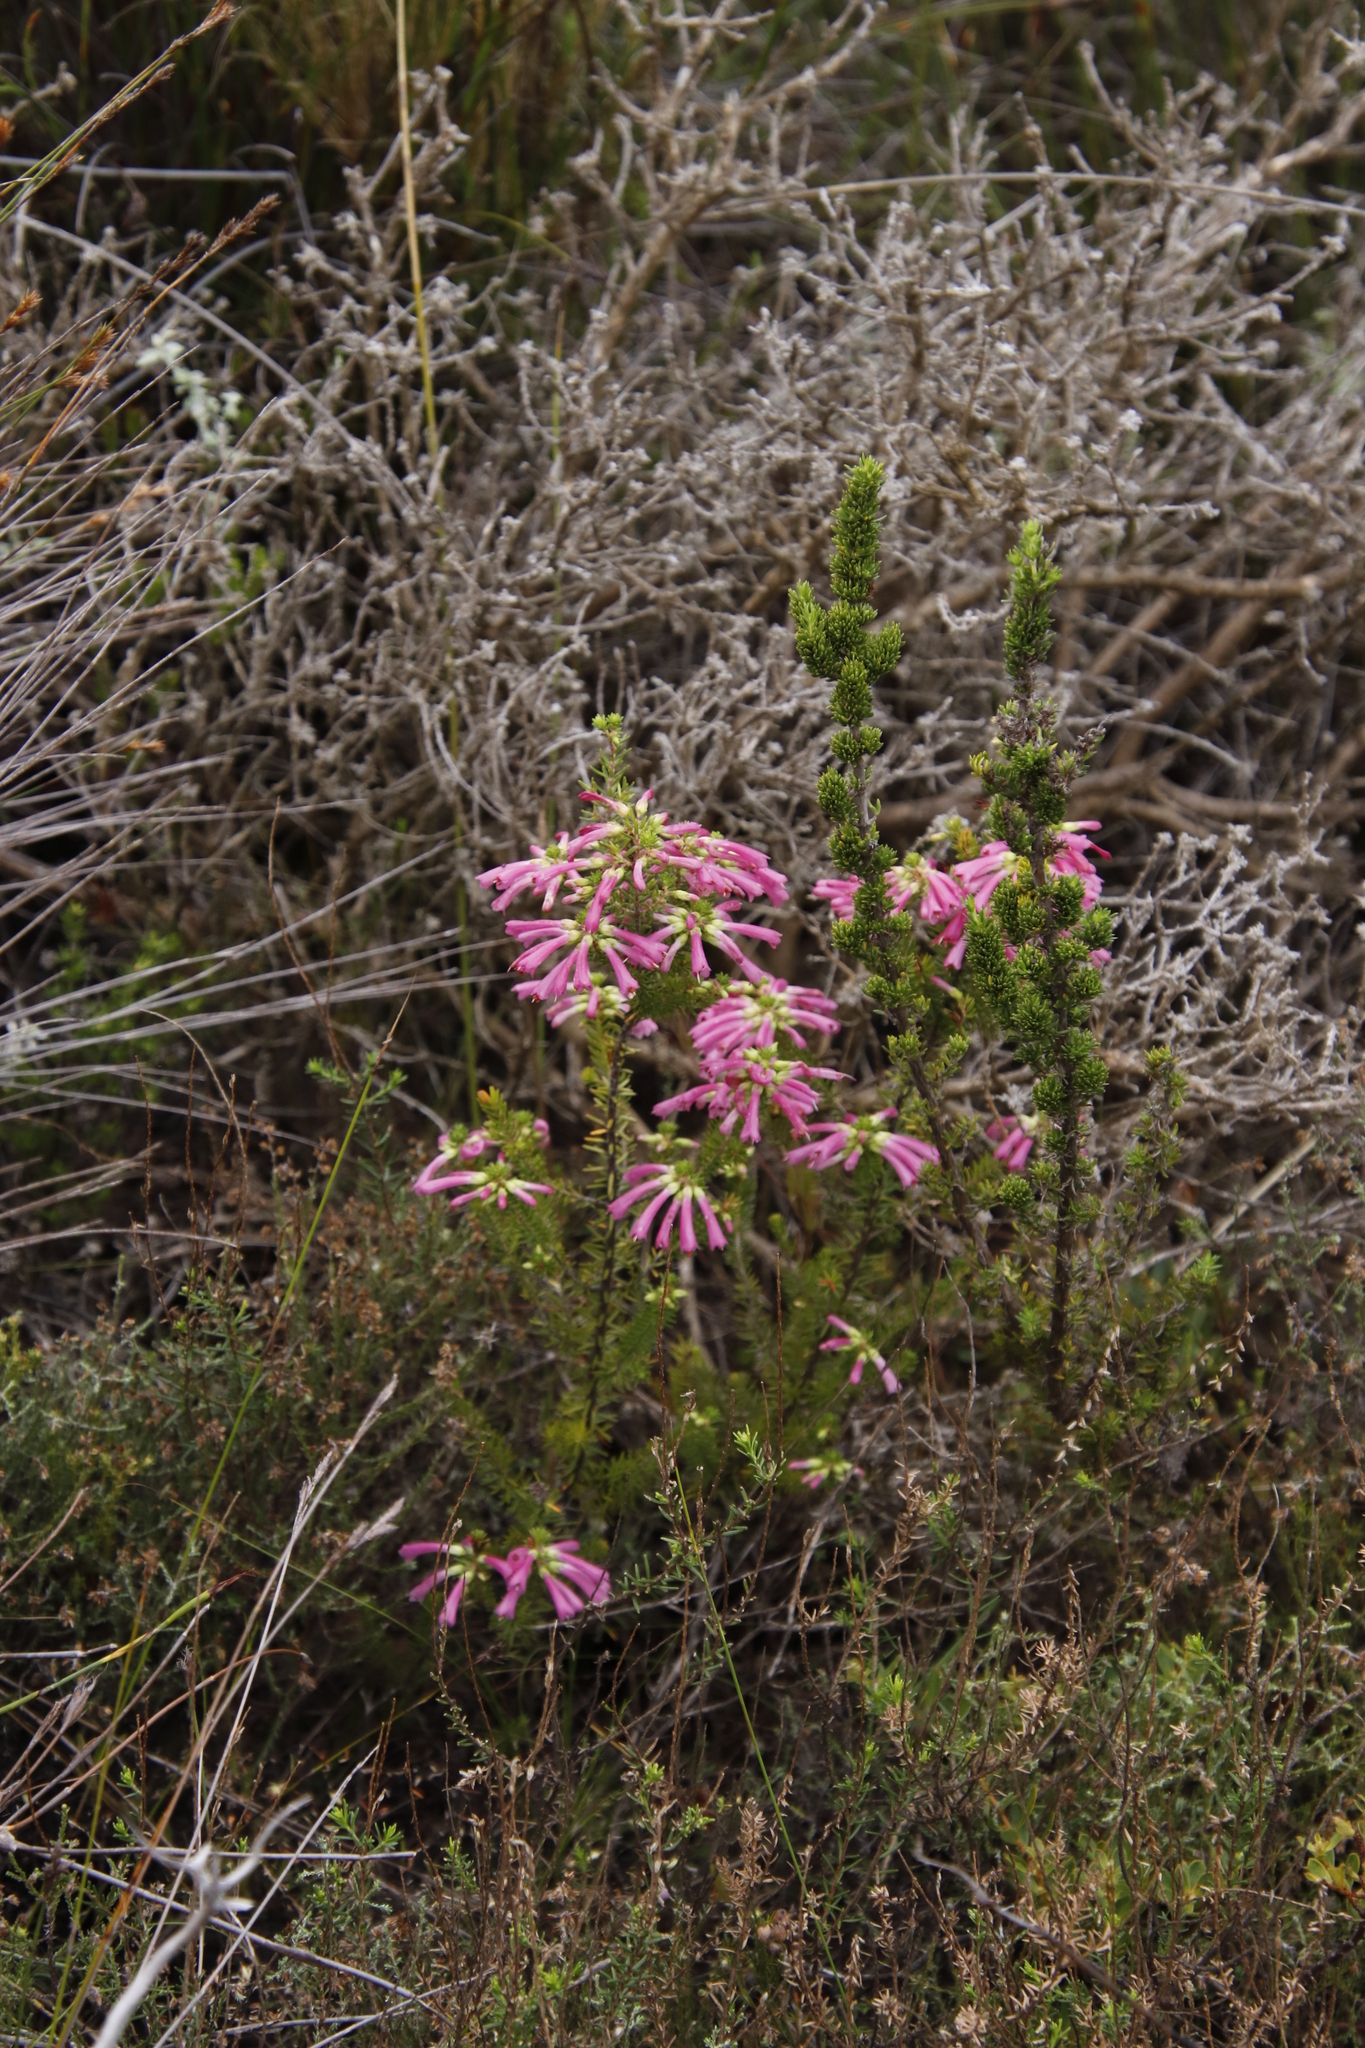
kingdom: Plantae
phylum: Tracheophyta
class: Magnoliopsida
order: Ericales
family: Ericaceae
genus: Erica
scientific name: Erica abietina
